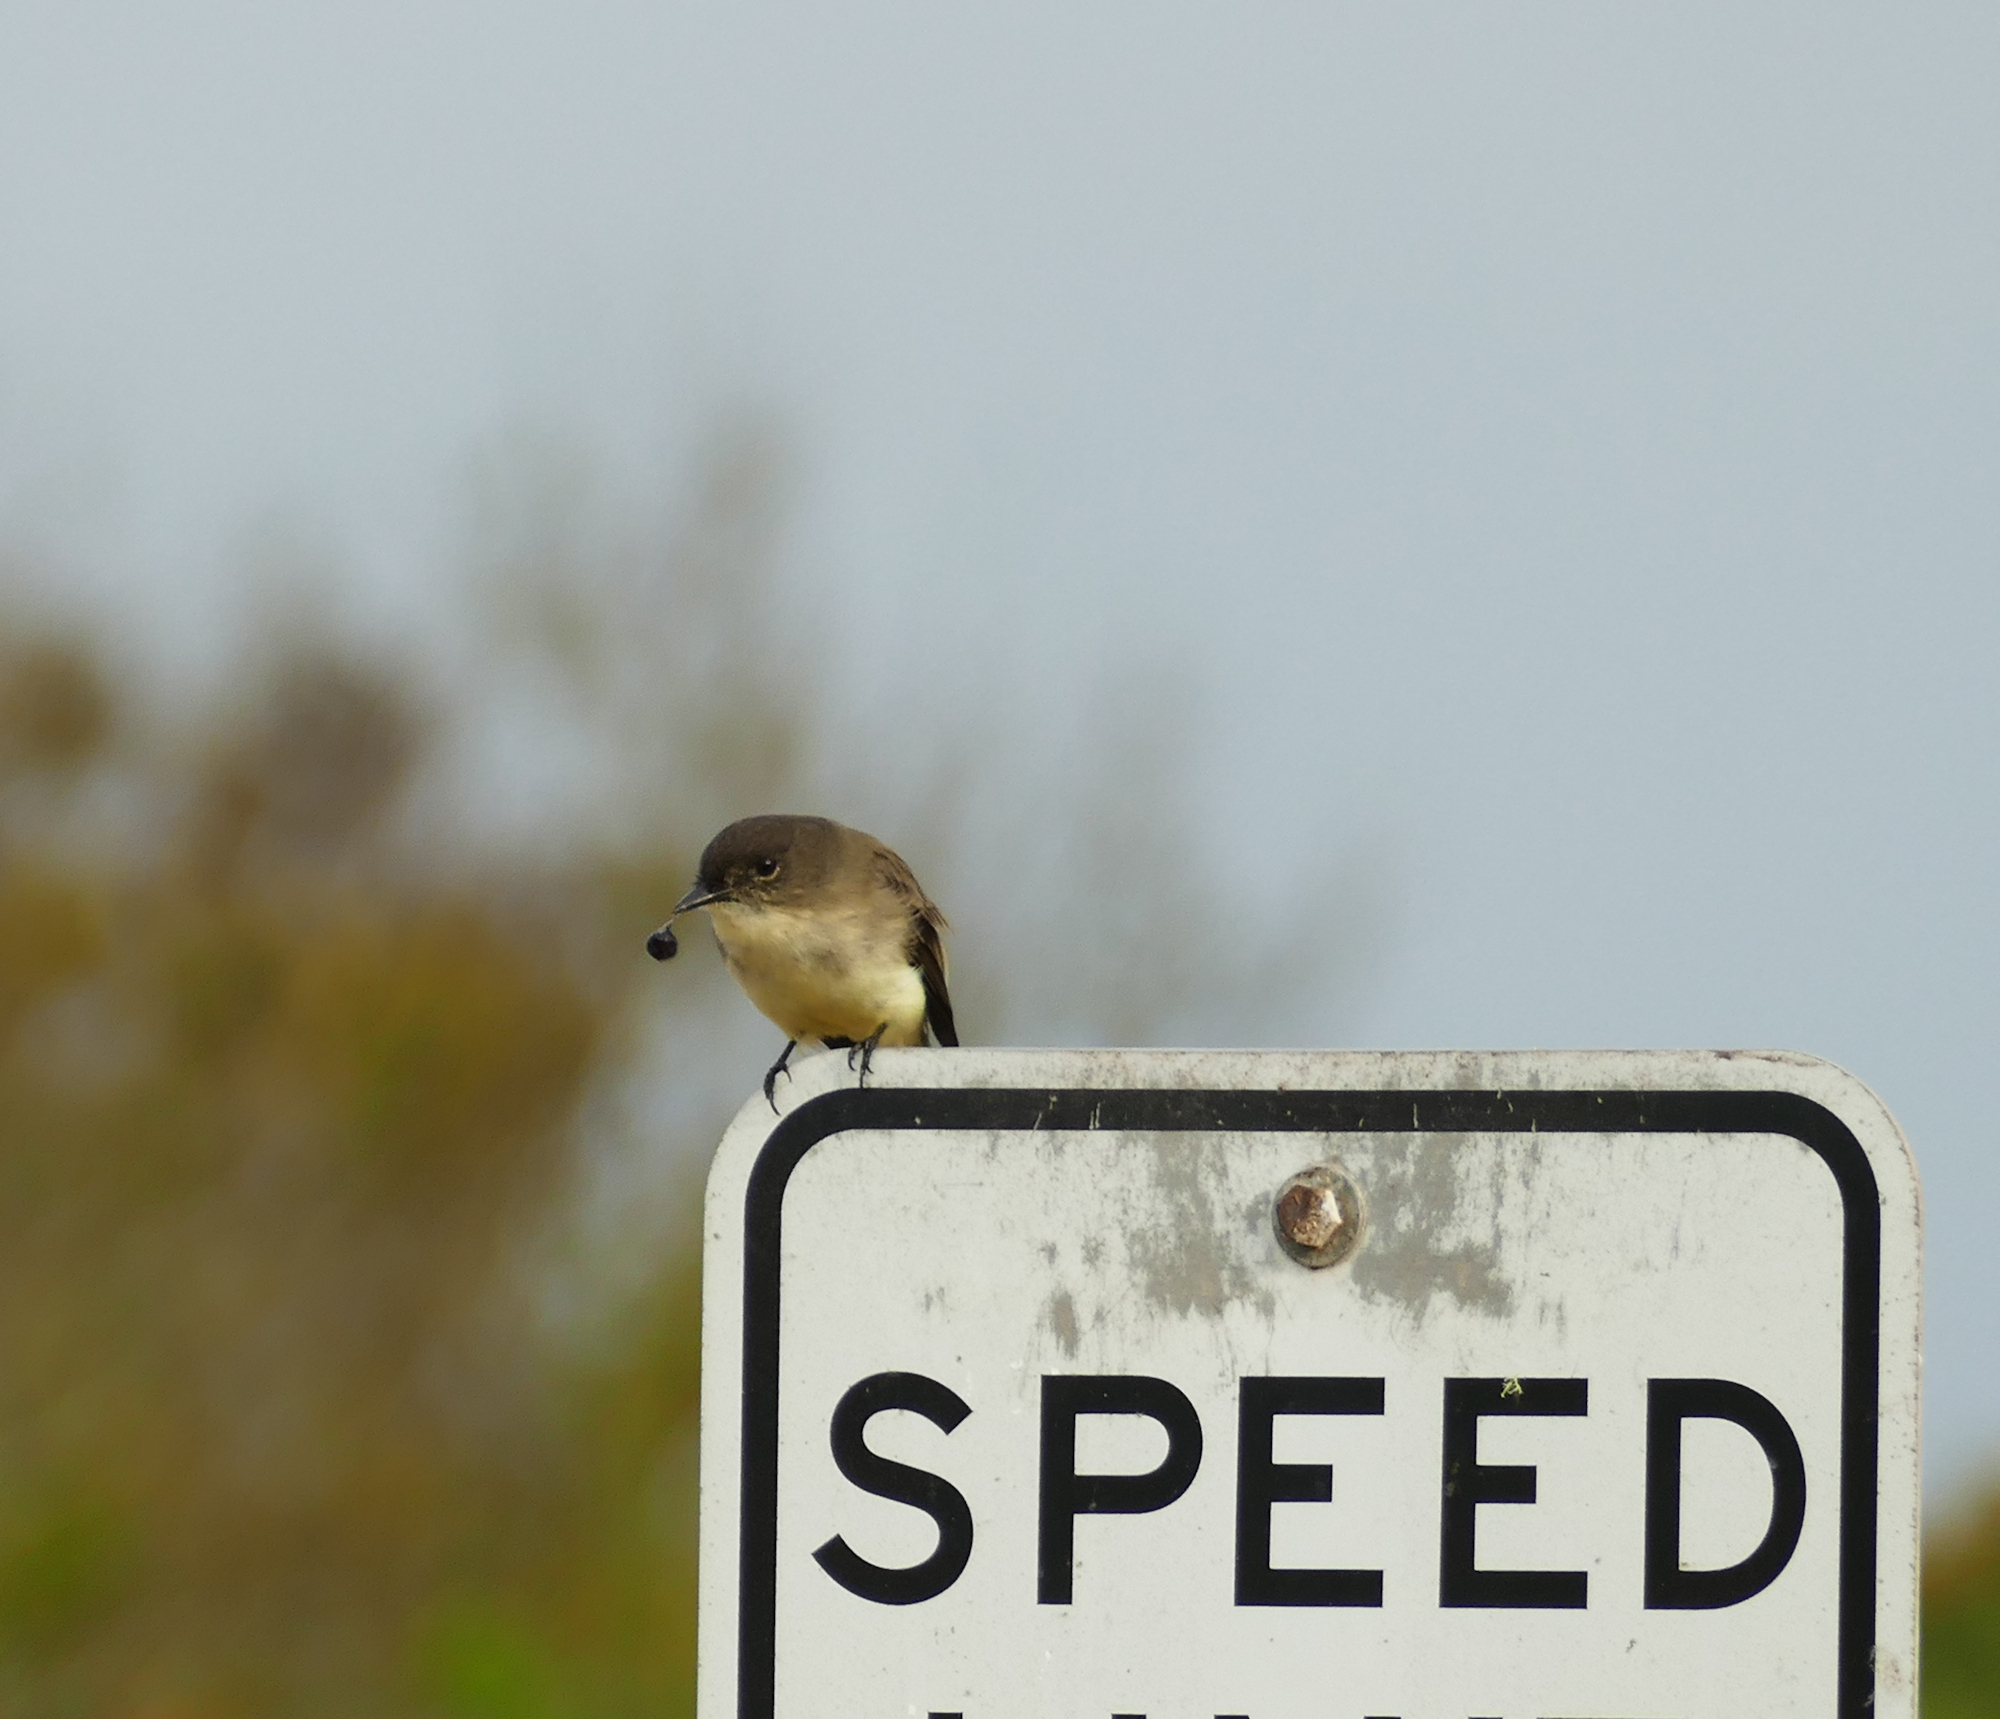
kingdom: Animalia
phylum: Chordata
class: Aves
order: Passeriformes
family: Tyrannidae
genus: Sayornis
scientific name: Sayornis phoebe
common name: Eastern phoebe
